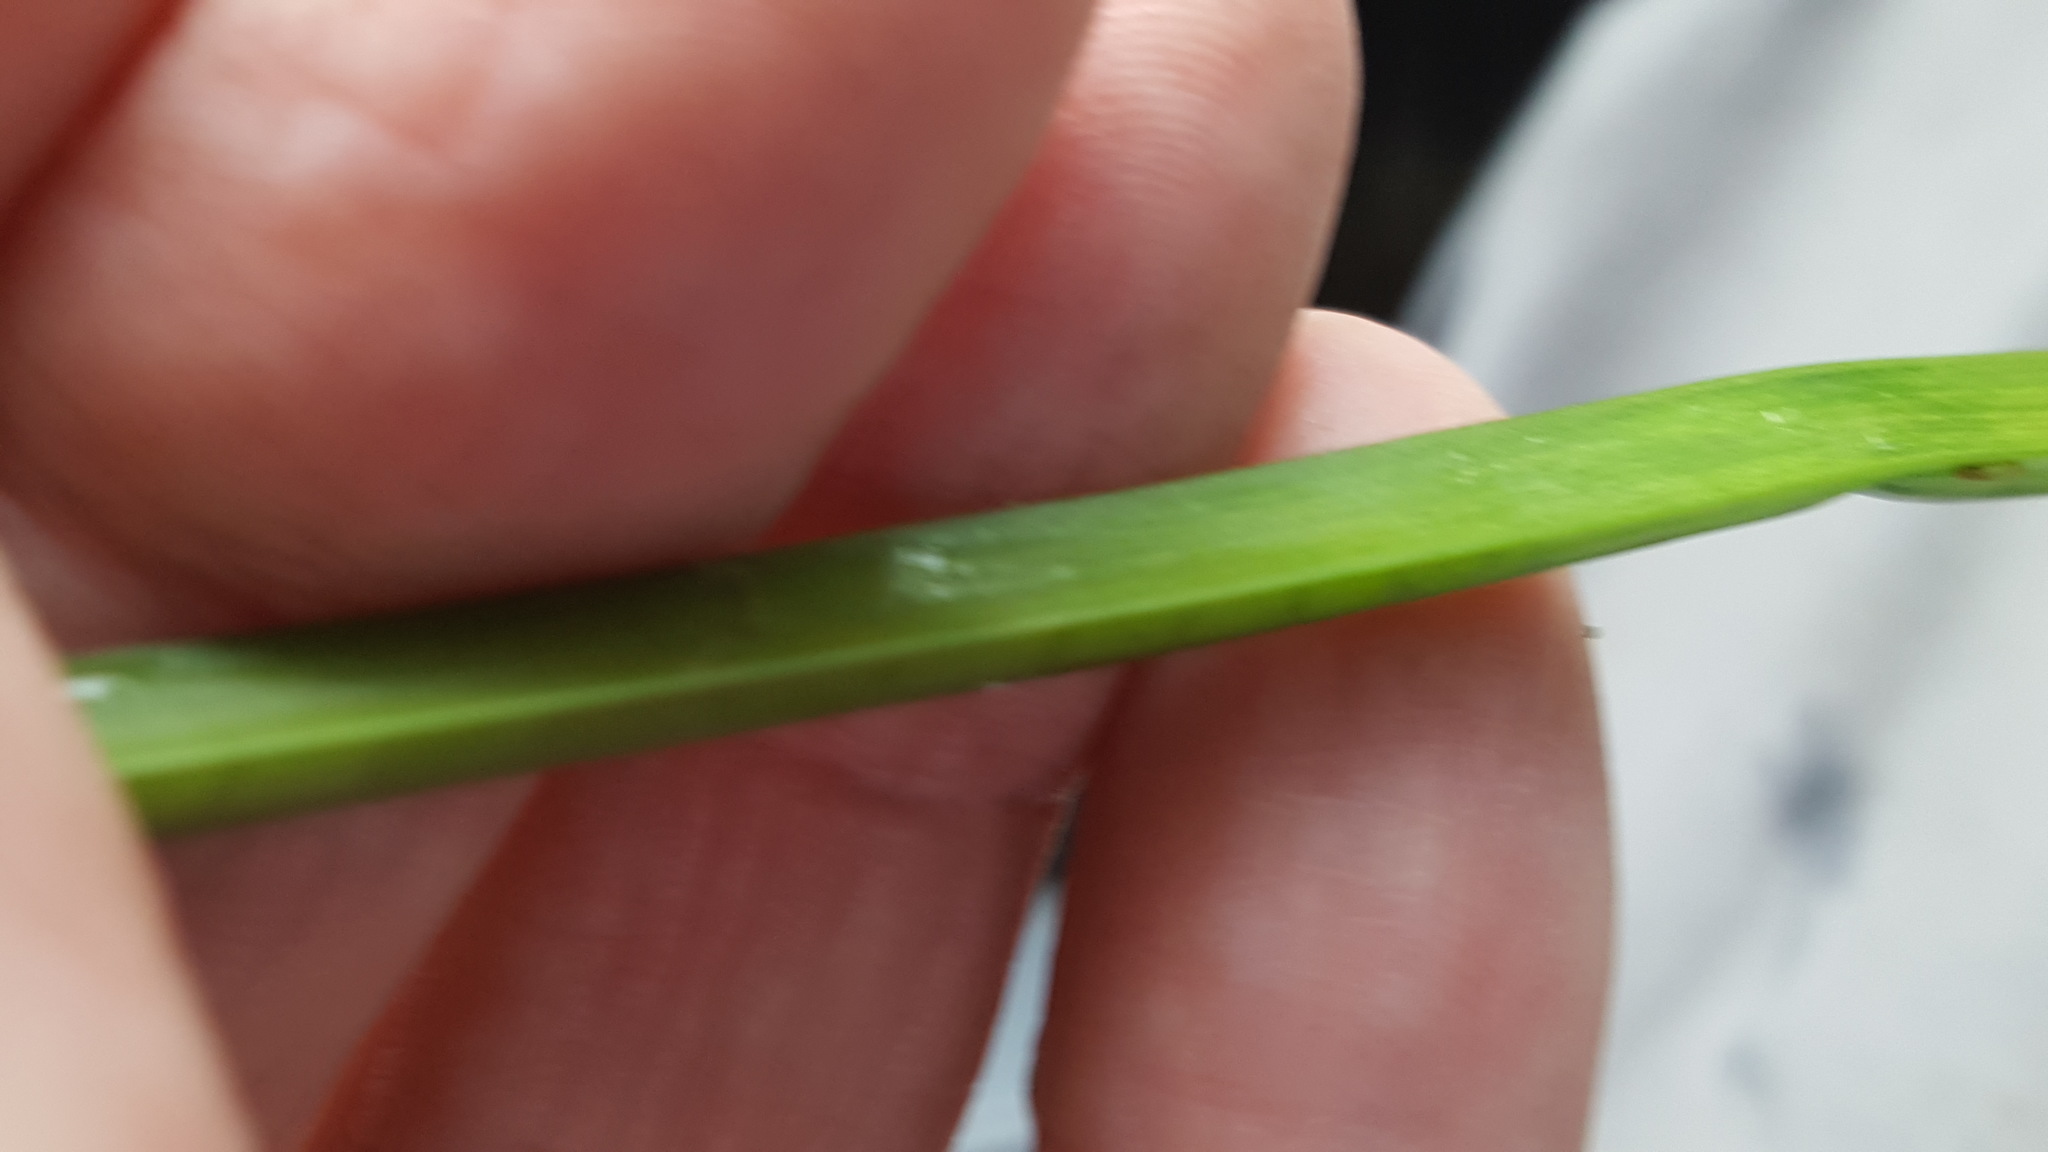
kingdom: Plantae
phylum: Tracheophyta
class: Liliopsida
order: Alismatales
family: Alismataceae
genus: Sagittaria
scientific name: Sagittaria rigida
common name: Canadian arrowhead
